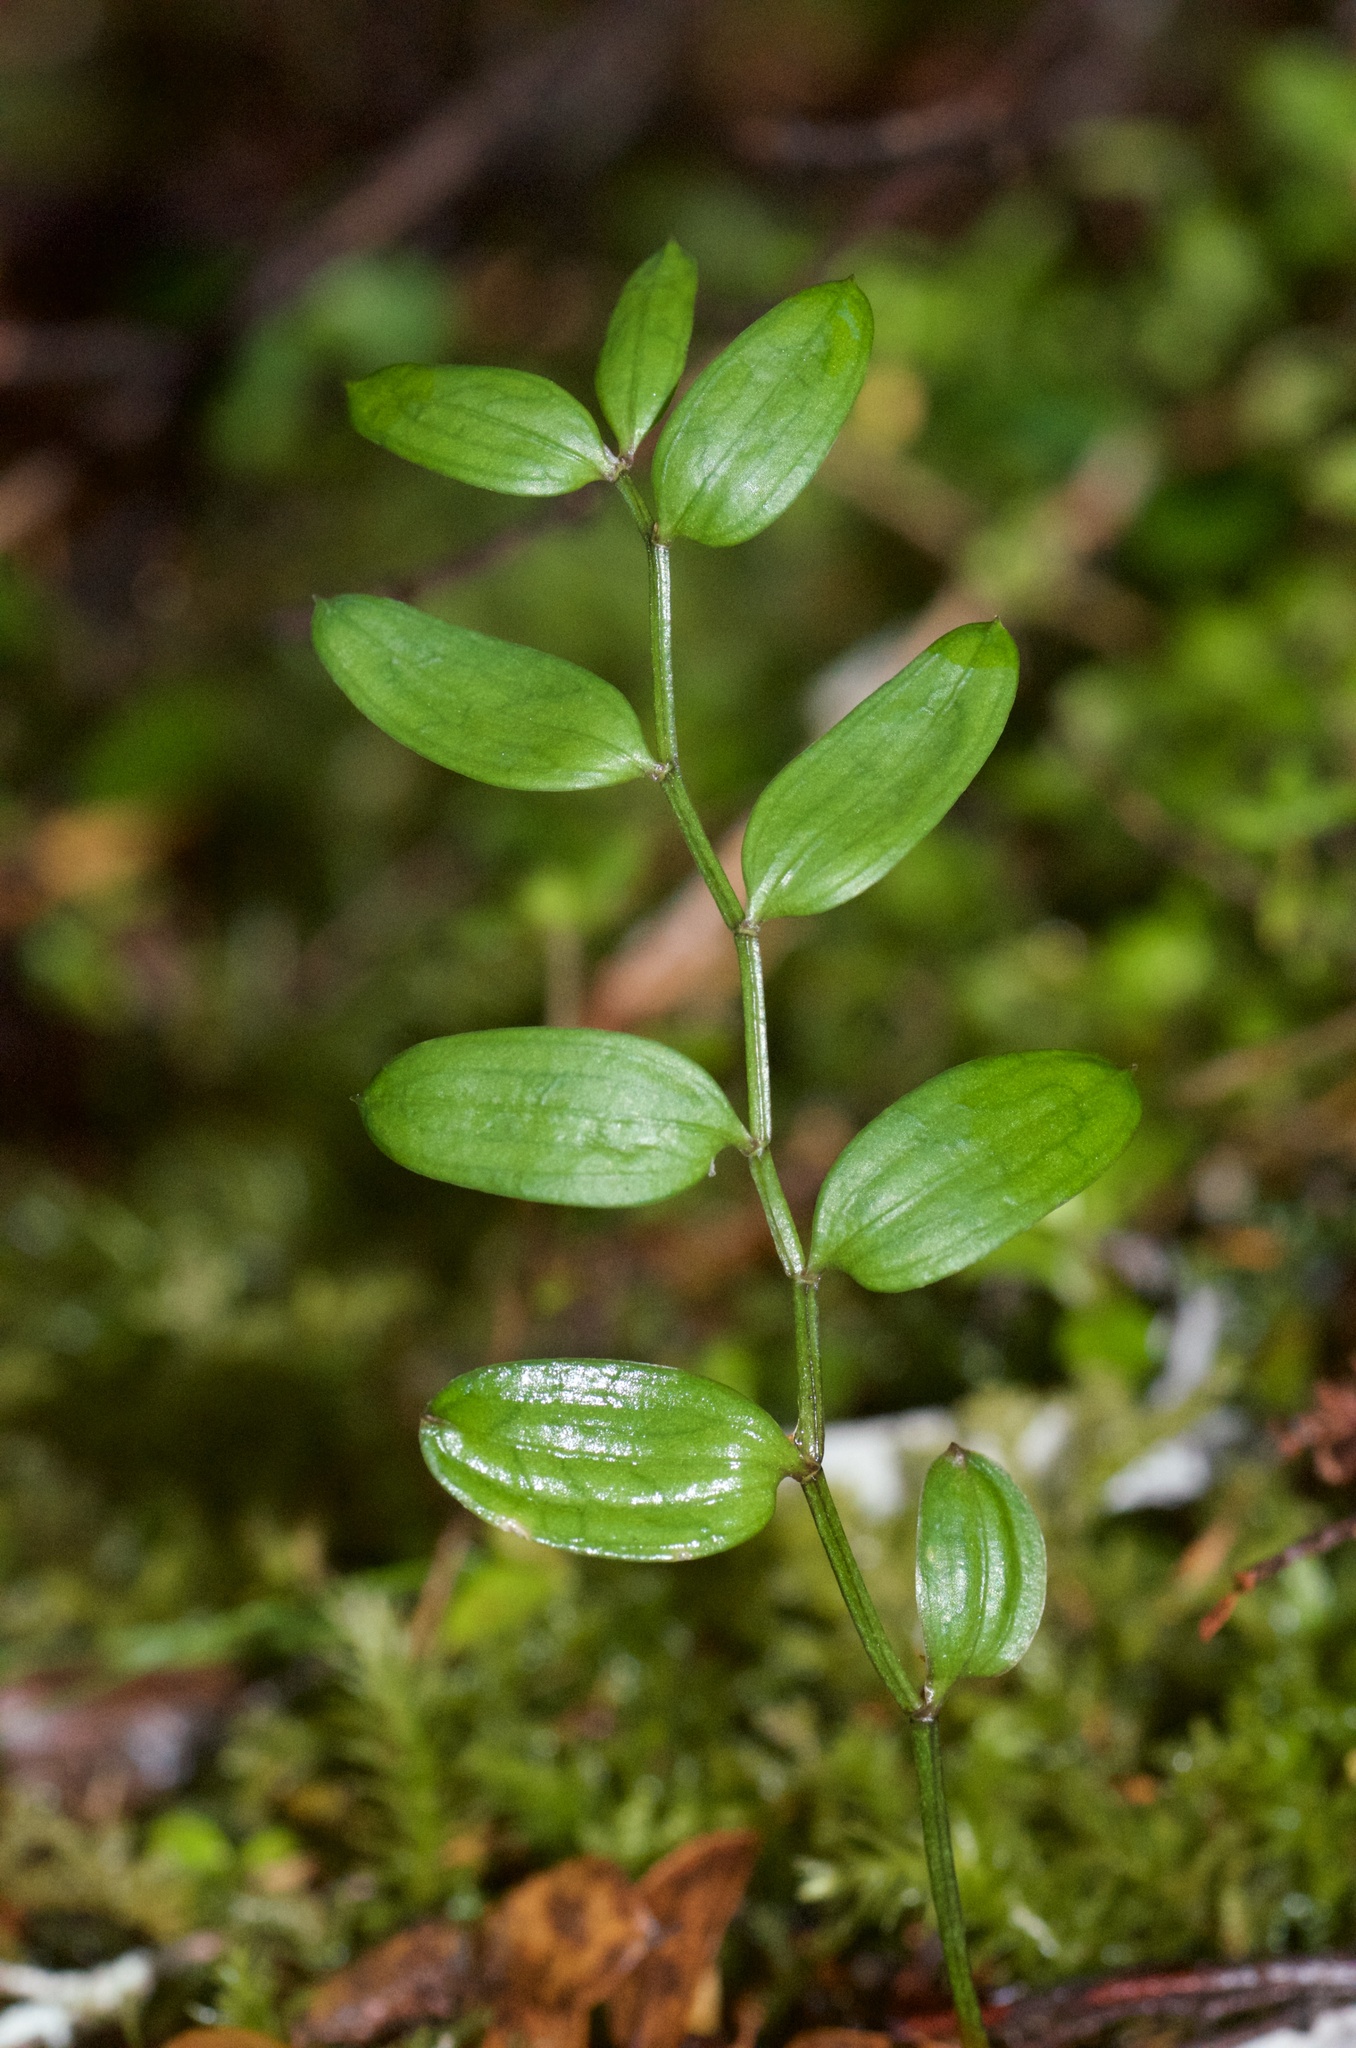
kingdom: Plantae
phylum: Tracheophyta
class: Liliopsida
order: Liliales
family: Alstroemeriaceae
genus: Luzuriaga
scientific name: Luzuriaga parviflora
